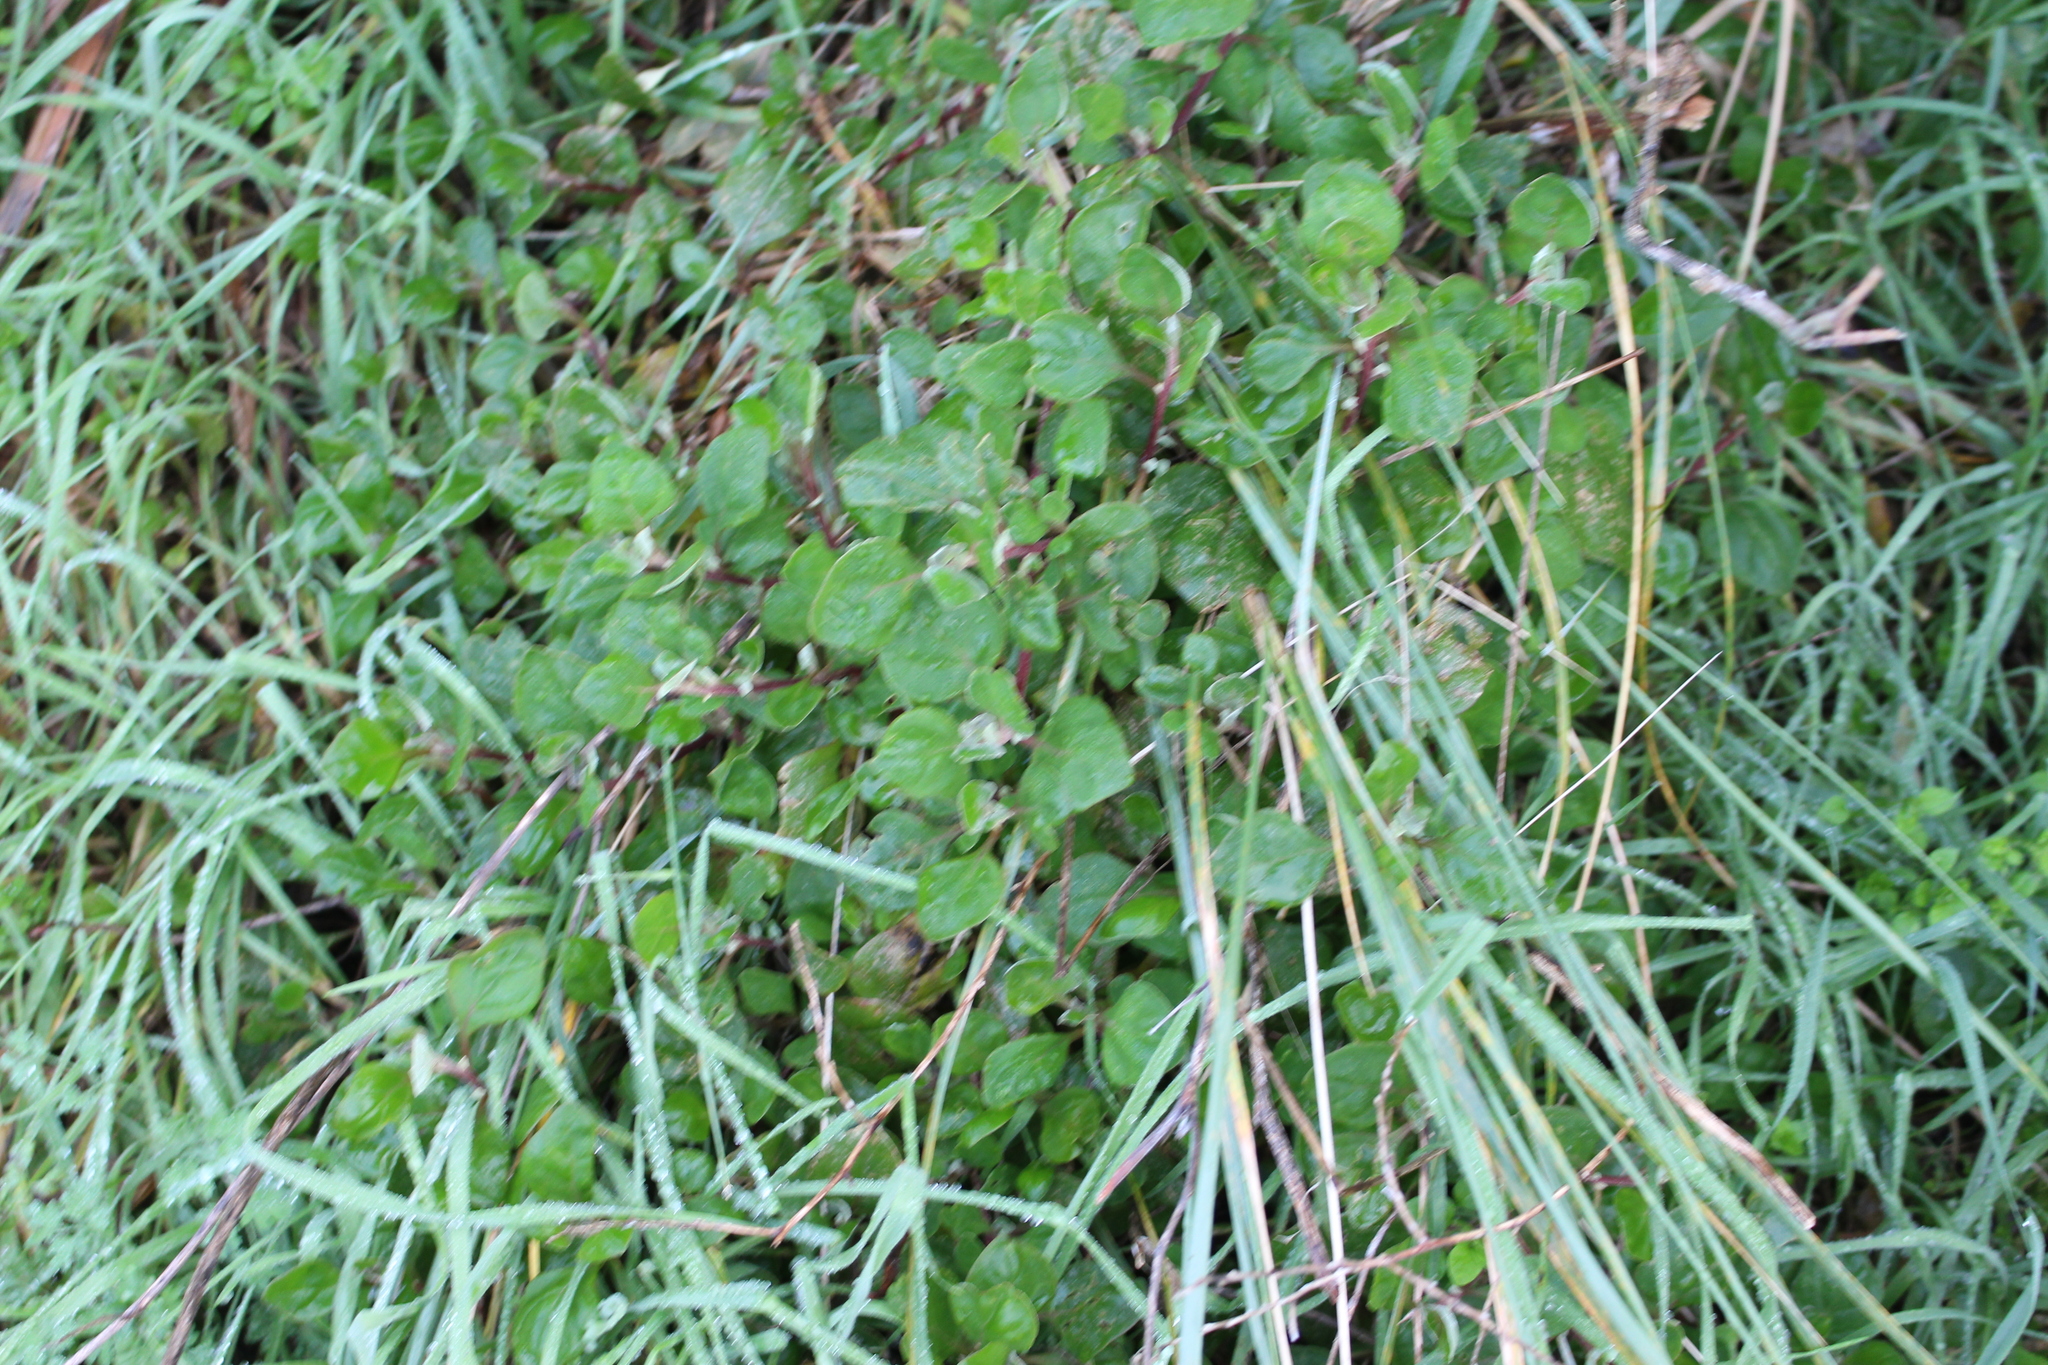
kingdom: Plantae
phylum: Tracheophyta
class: Magnoliopsida
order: Caryophyllales
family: Aizoaceae
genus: Tetragonia
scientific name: Tetragonia implexicoma
